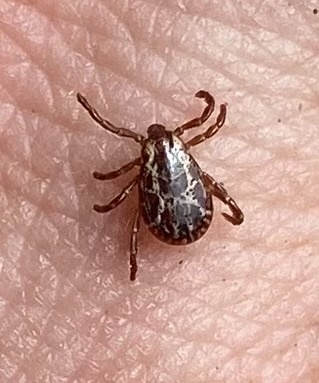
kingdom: Animalia
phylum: Arthropoda
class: Arachnida
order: Ixodida
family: Ixodidae
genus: Dermacentor
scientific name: Dermacentor variabilis
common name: American dog tick
